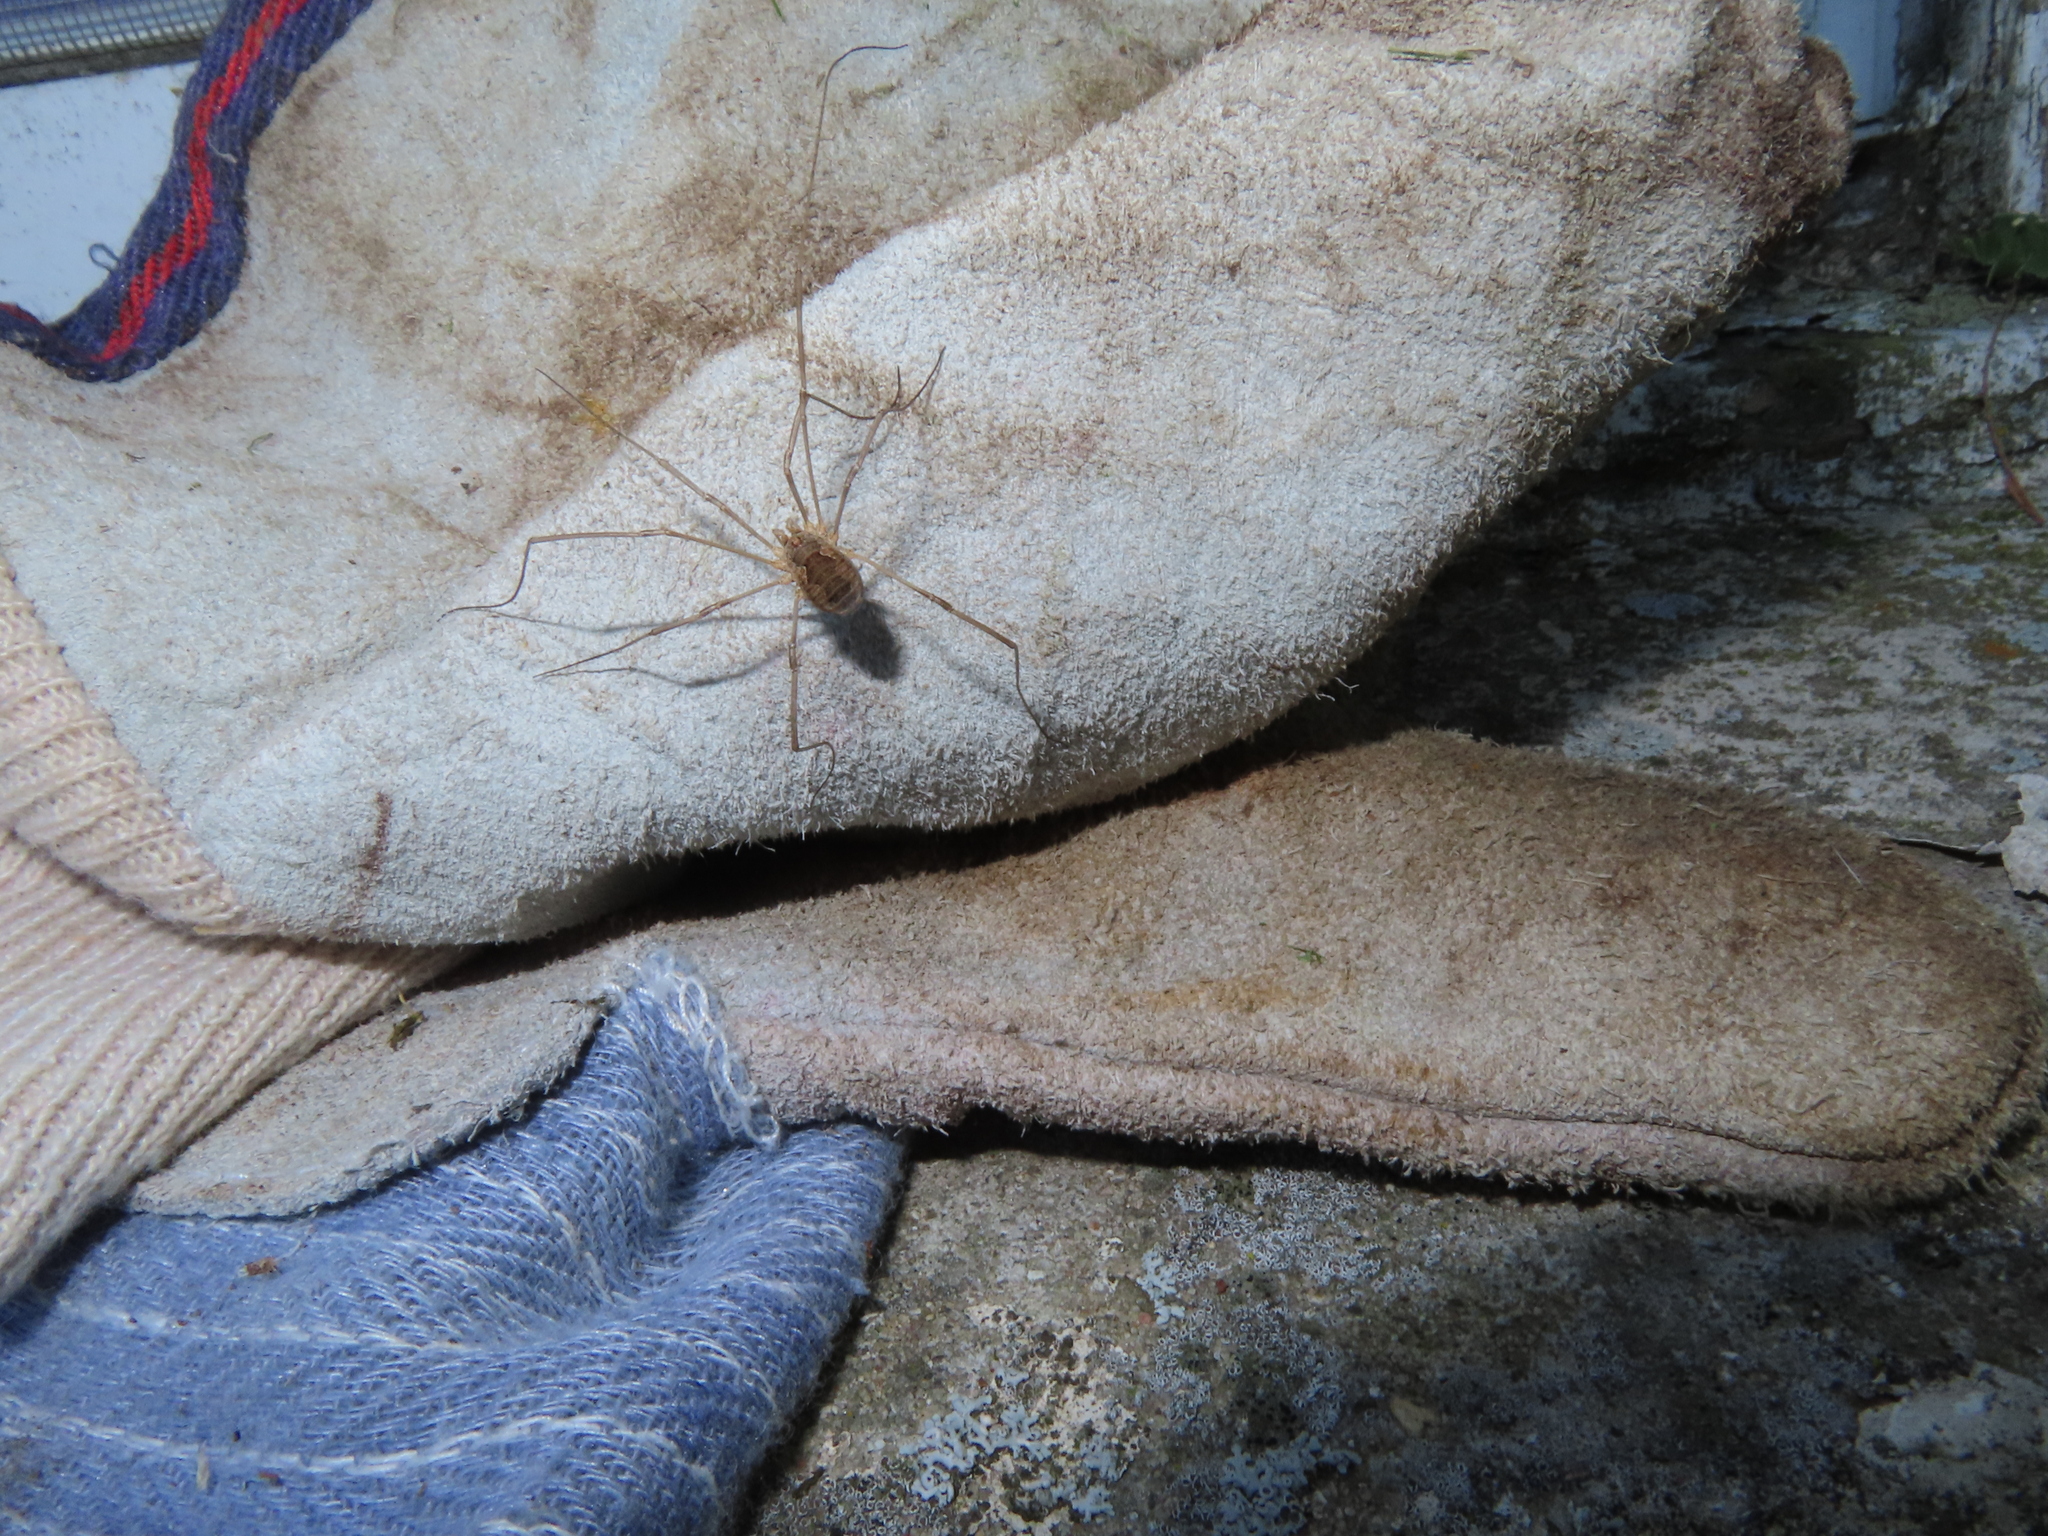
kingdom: Animalia
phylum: Arthropoda
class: Arachnida
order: Opiliones
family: Phalangiidae
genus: Phalangium
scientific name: Phalangium opilio
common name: Daddy longleg
